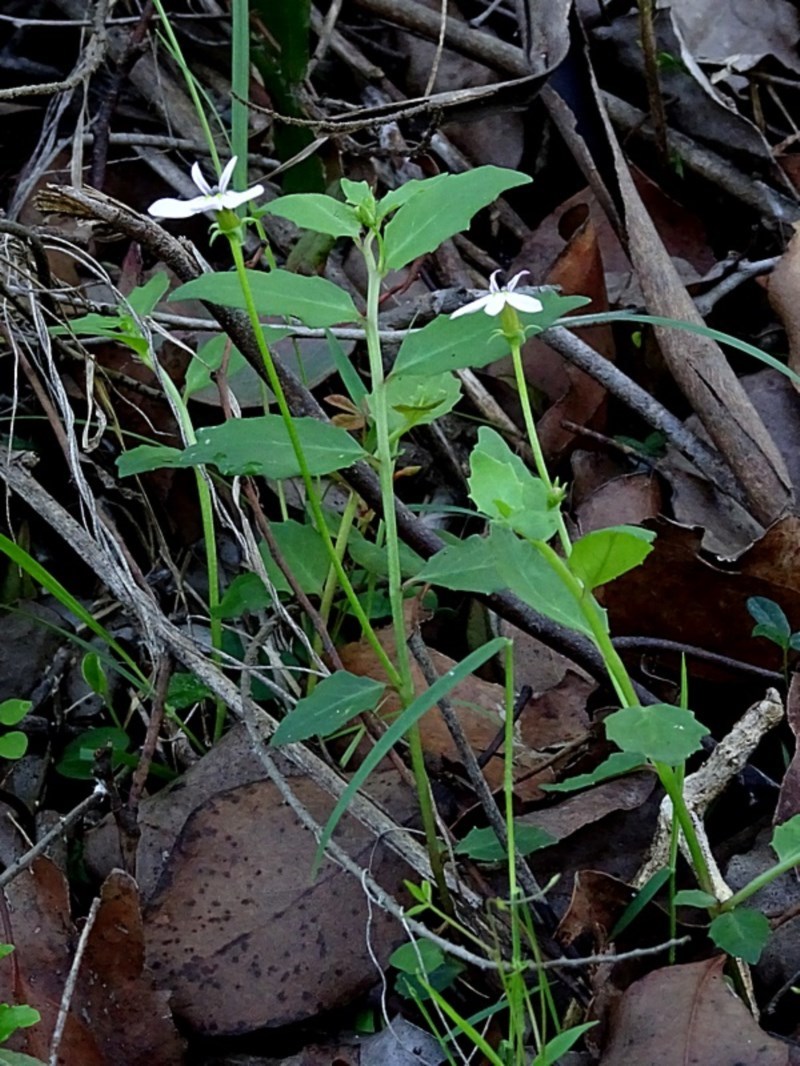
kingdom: Plantae
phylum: Tracheophyta
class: Magnoliopsida
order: Asterales
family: Campanulaceae
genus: Lobelia
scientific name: Lobelia purpurascens
